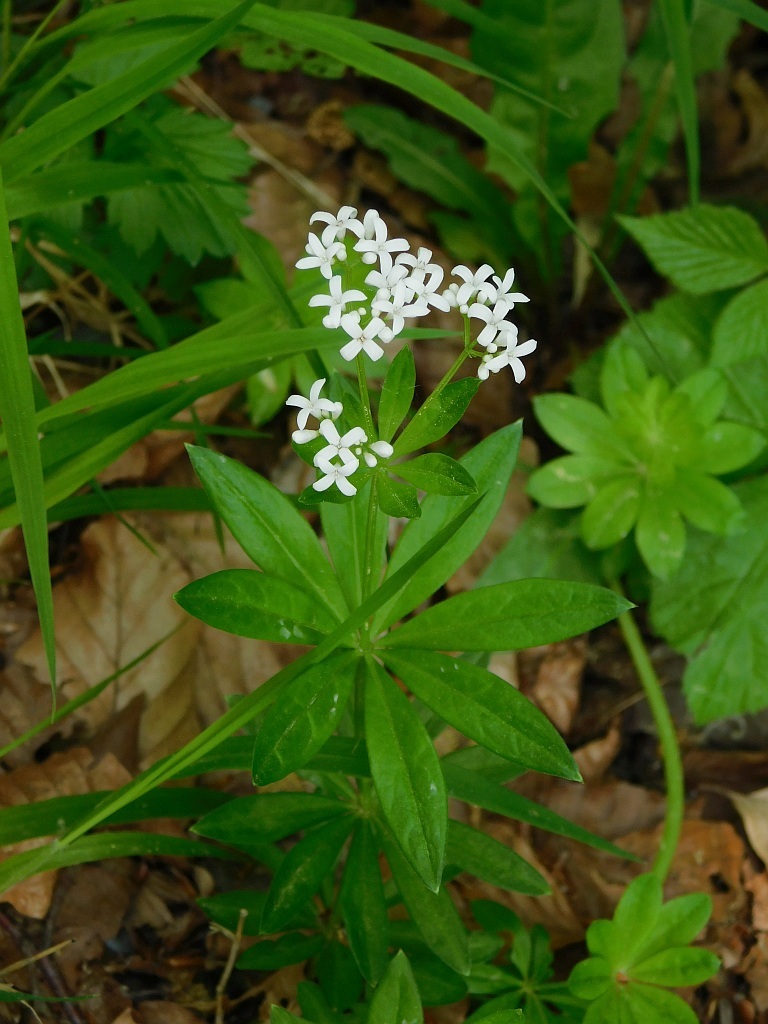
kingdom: Plantae
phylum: Tracheophyta
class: Magnoliopsida
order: Gentianales
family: Rubiaceae
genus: Galium
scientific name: Galium odoratum
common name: Sweet woodruff
